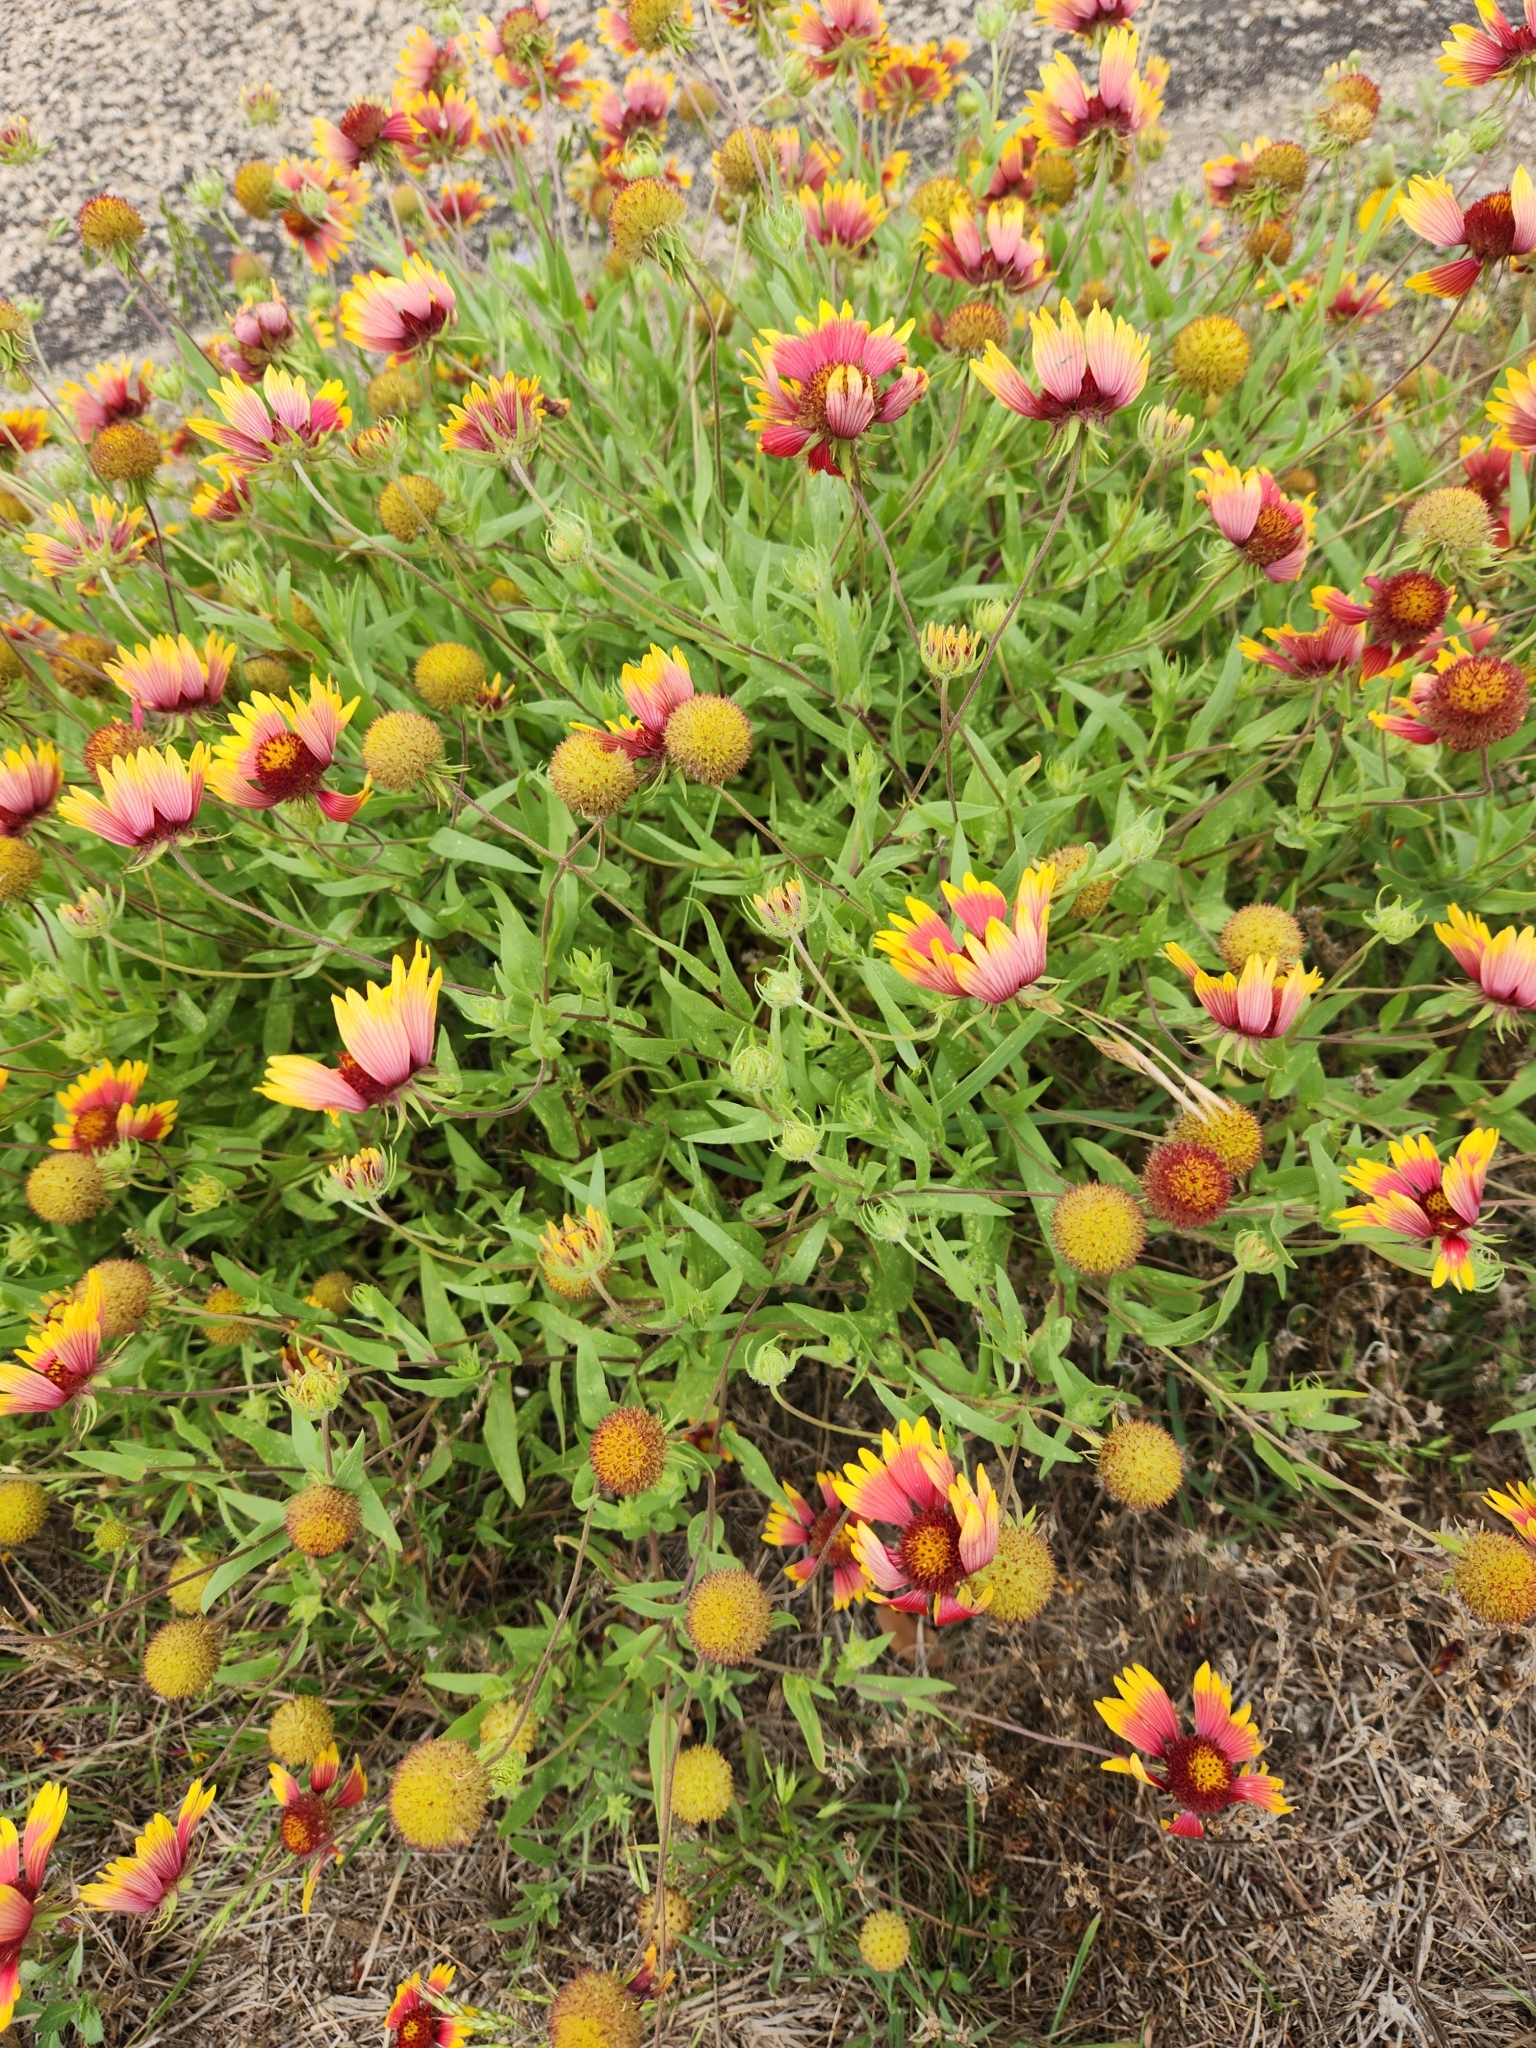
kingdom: Plantae
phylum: Tracheophyta
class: Magnoliopsida
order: Asterales
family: Asteraceae
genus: Gaillardia
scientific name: Gaillardia pulchella
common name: Firewheel
